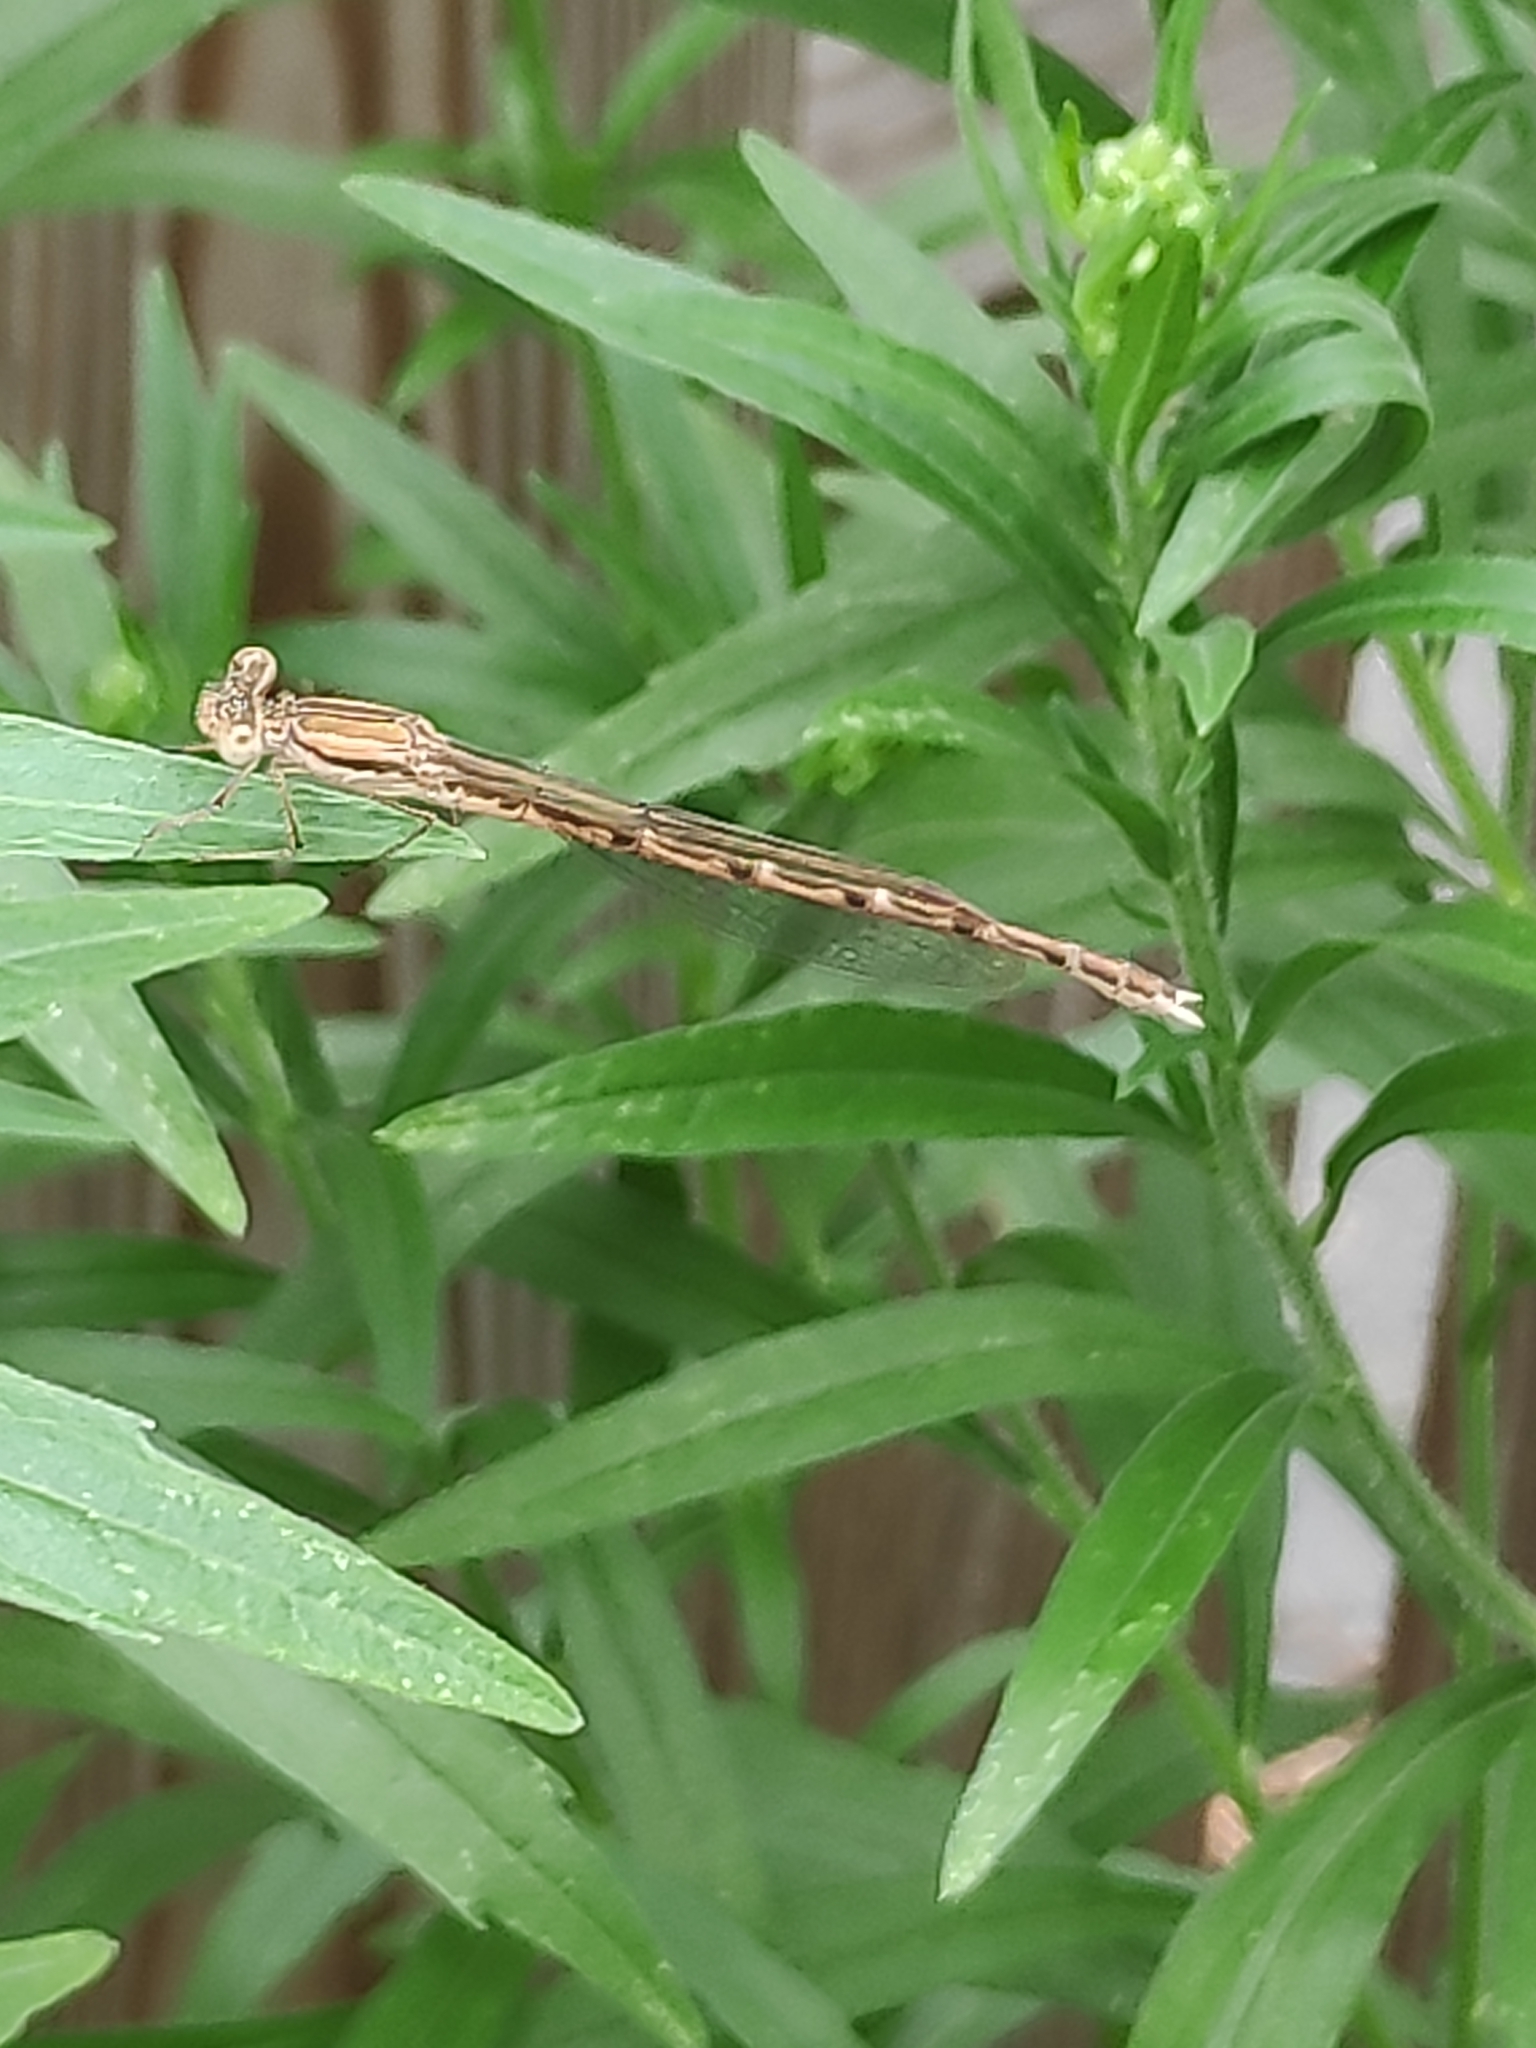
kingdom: Animalia
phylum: Arthropoda
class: Insecta
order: Odonata
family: Lestidae
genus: Sympecma
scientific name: Sympecma fusca
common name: Common winter damsel
